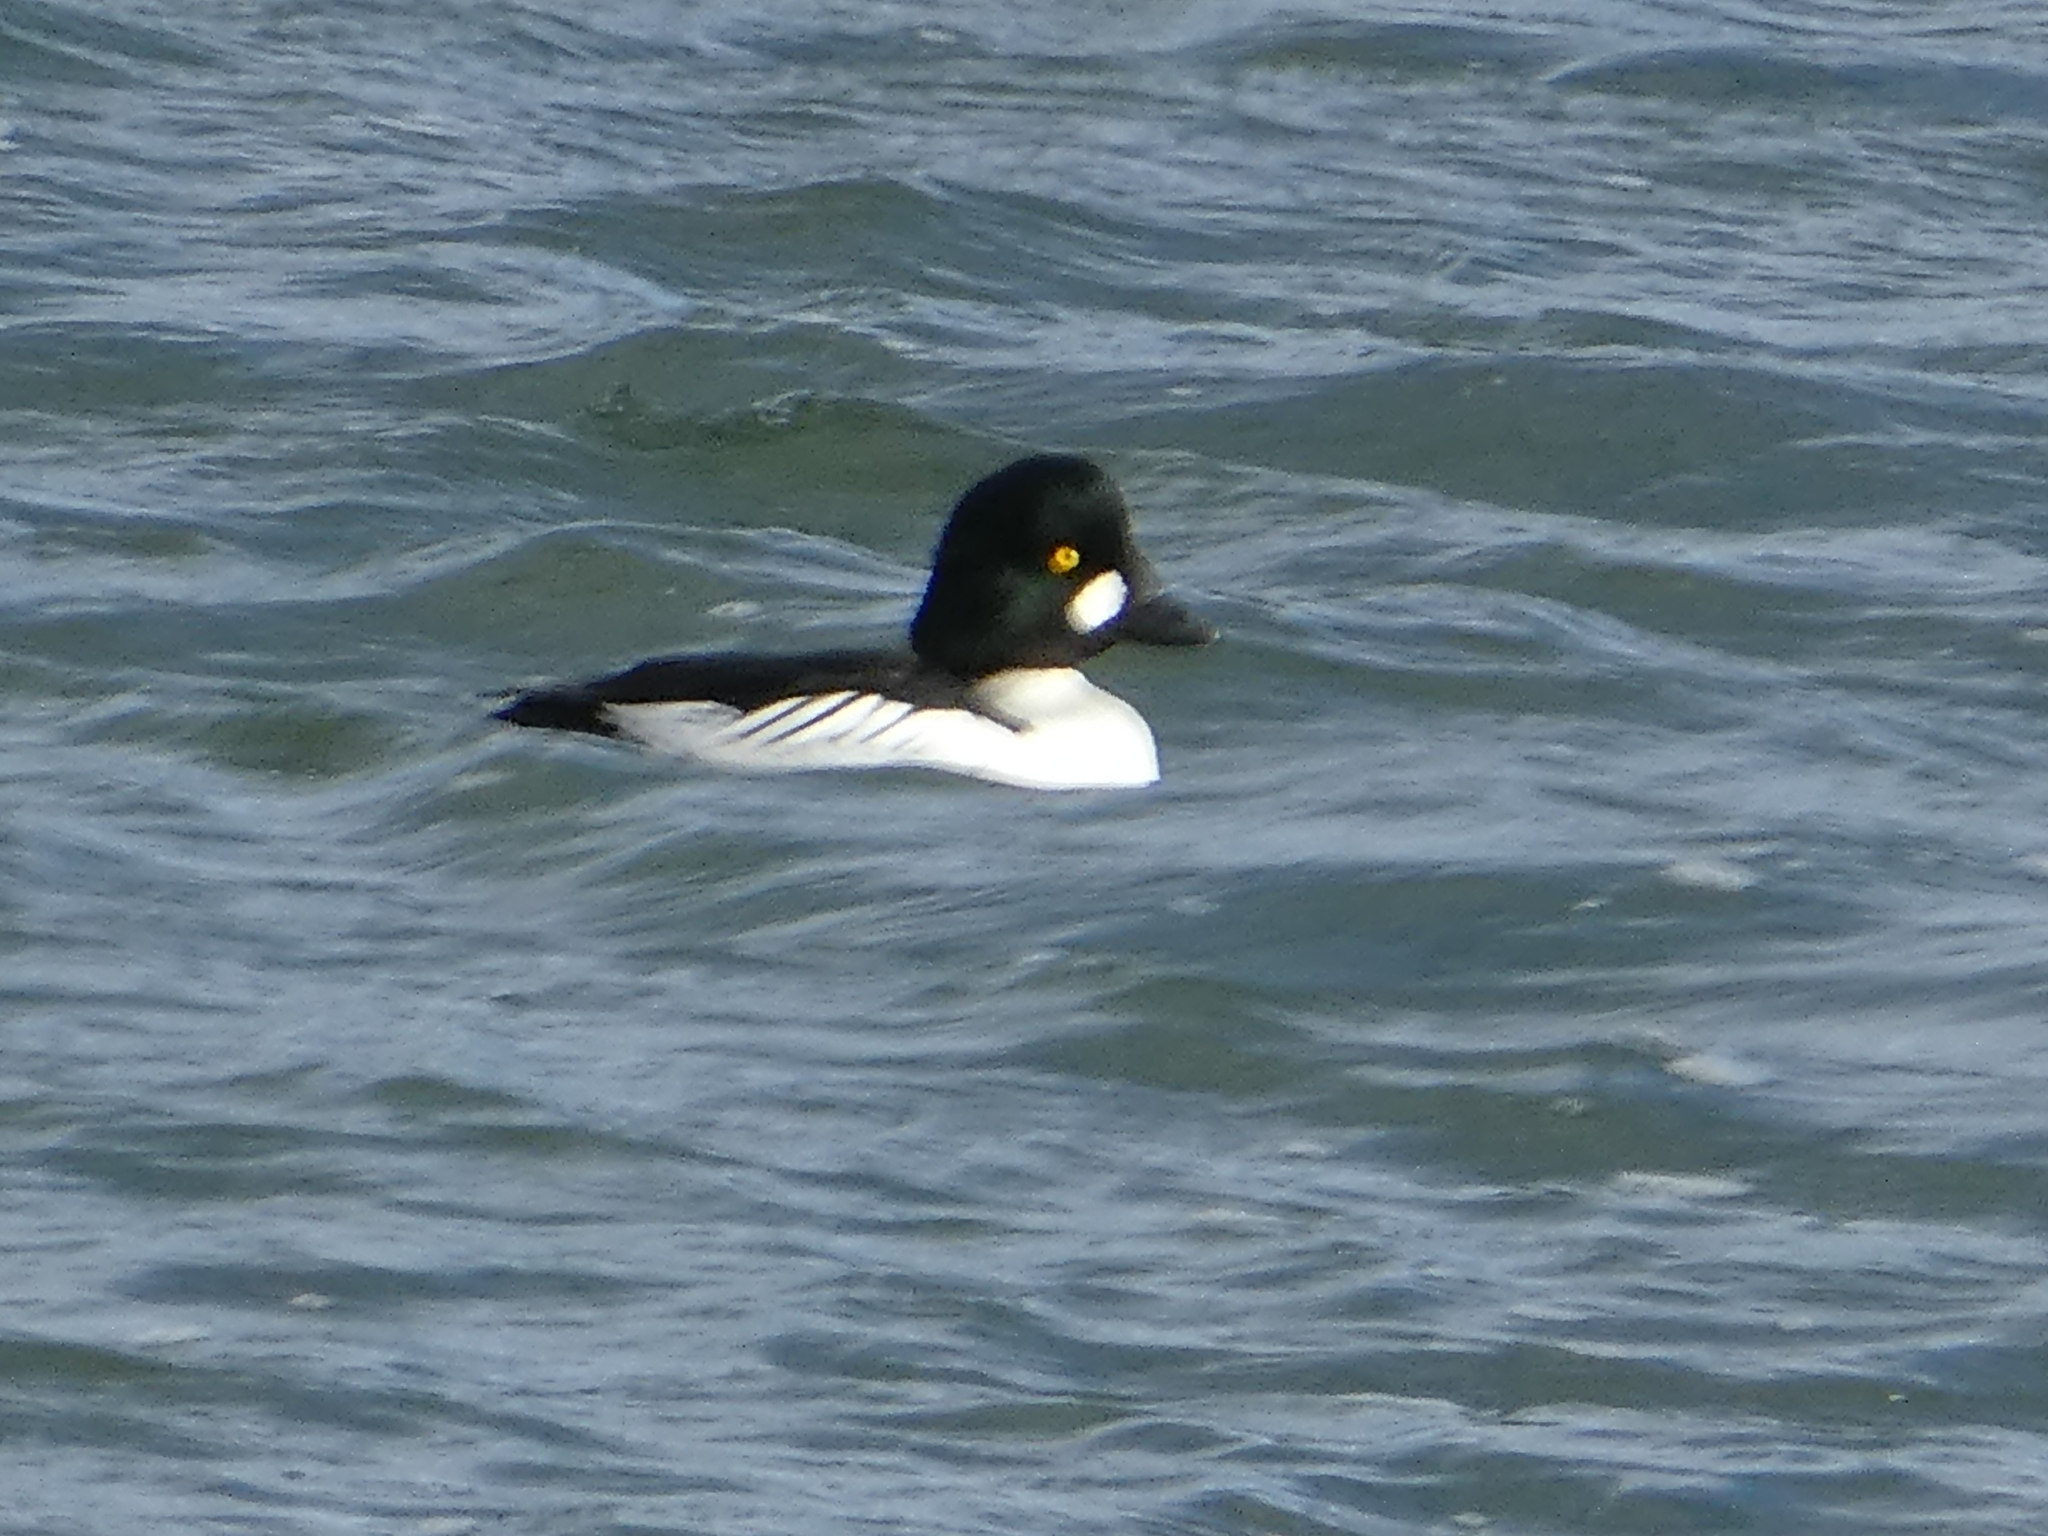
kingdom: Animalia
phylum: Chordata
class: Aves
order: Anseriformes
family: Anatidae
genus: Bucephala
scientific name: Bucephala clangula
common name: Common goldeneye
